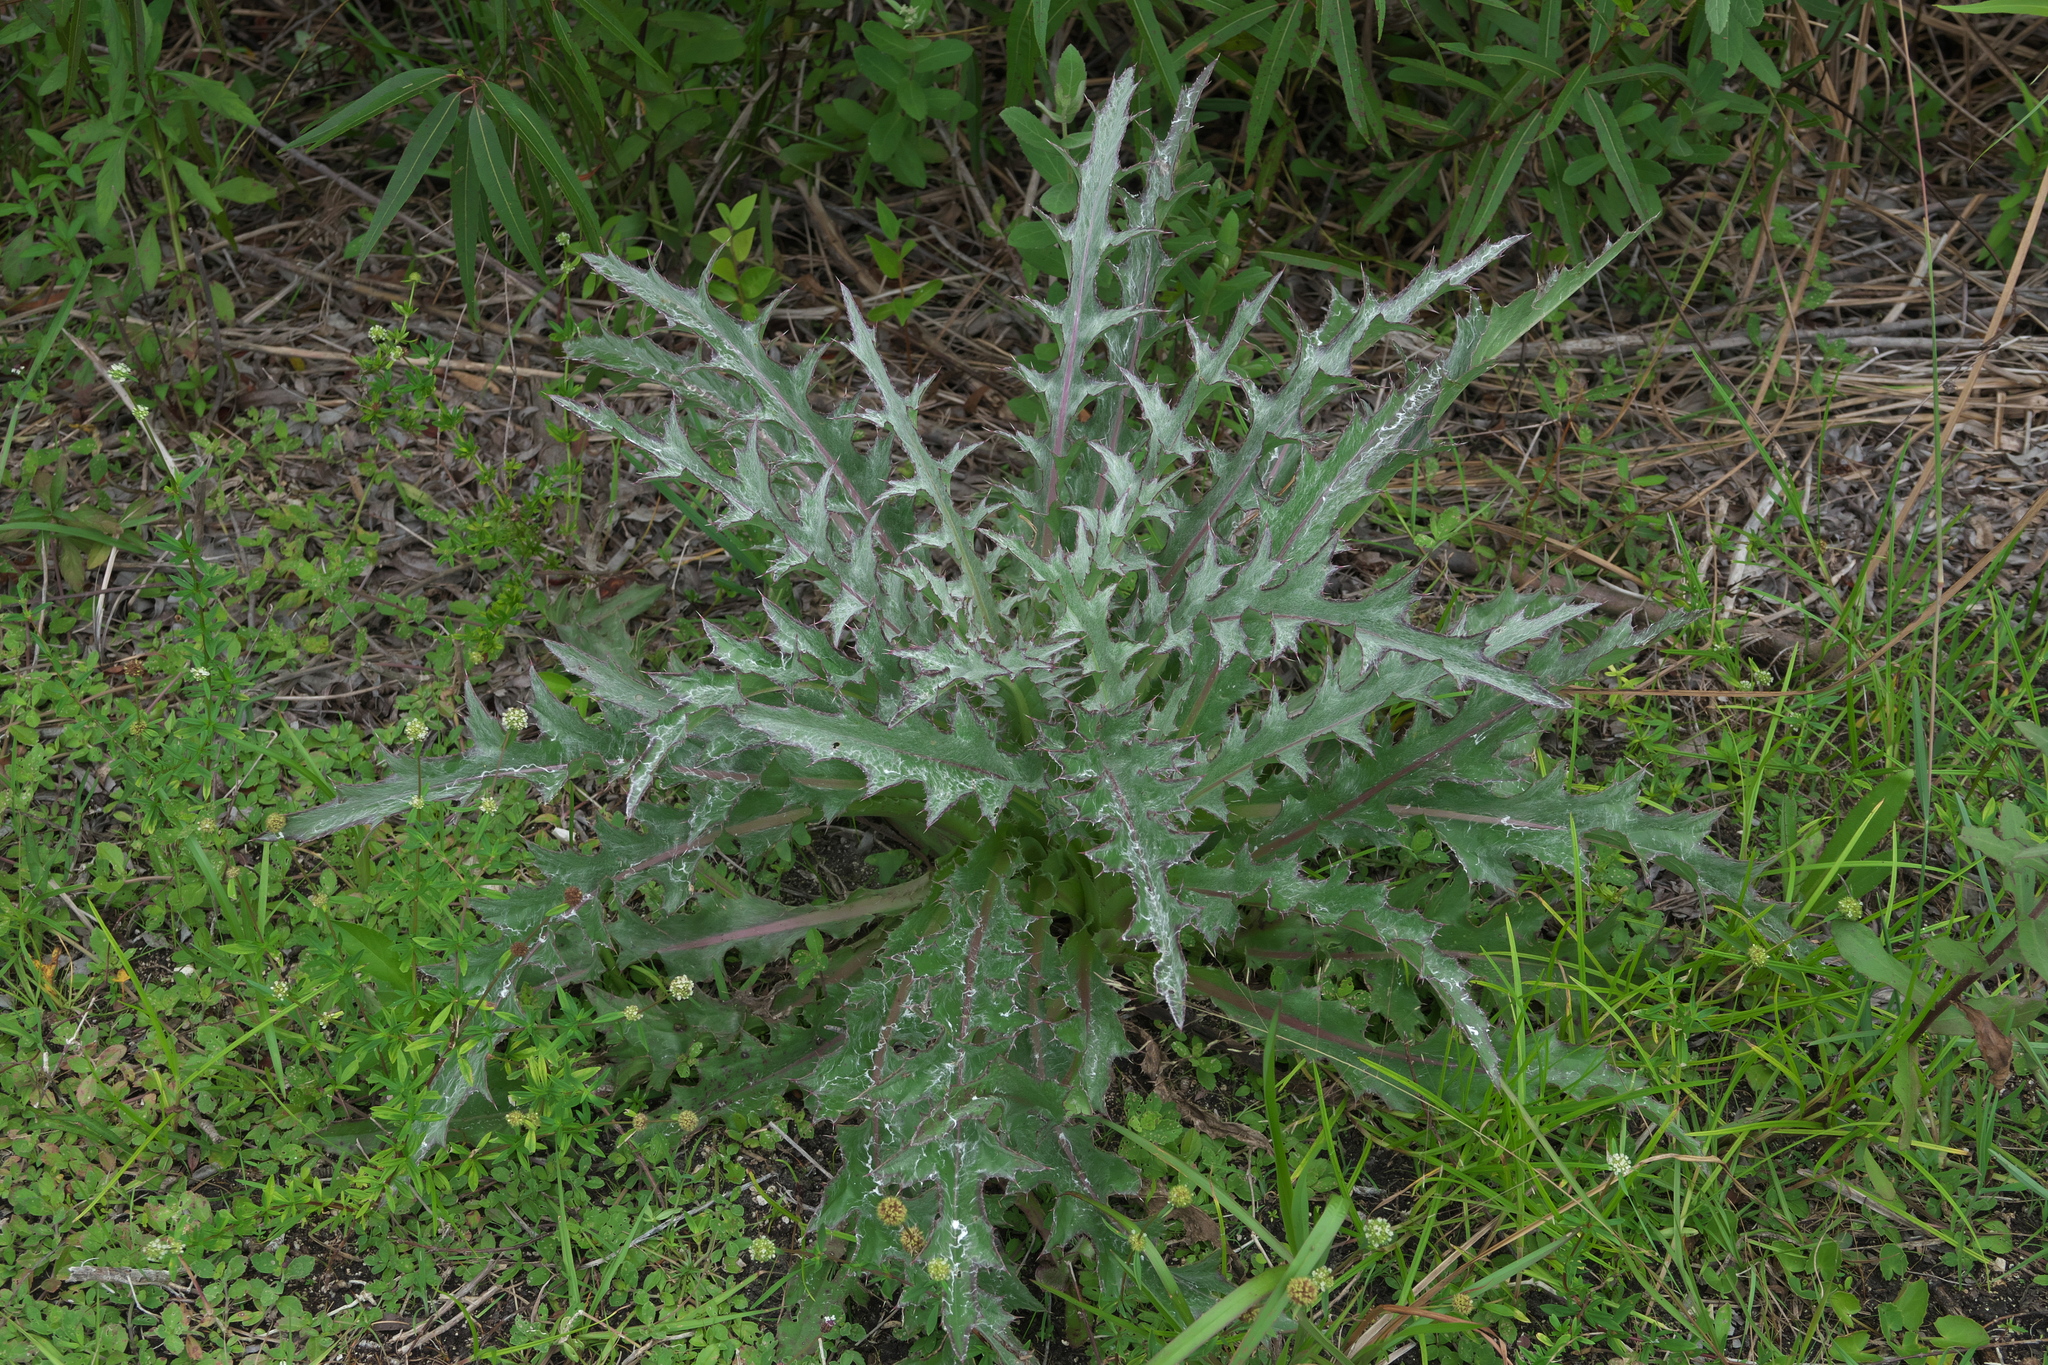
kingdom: Plantae
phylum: Tracheophyta
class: Magnoliopsida
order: Asterales
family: Asteraceae
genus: Cirsium
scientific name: Cirsium horridulum
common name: Bristly thistle
